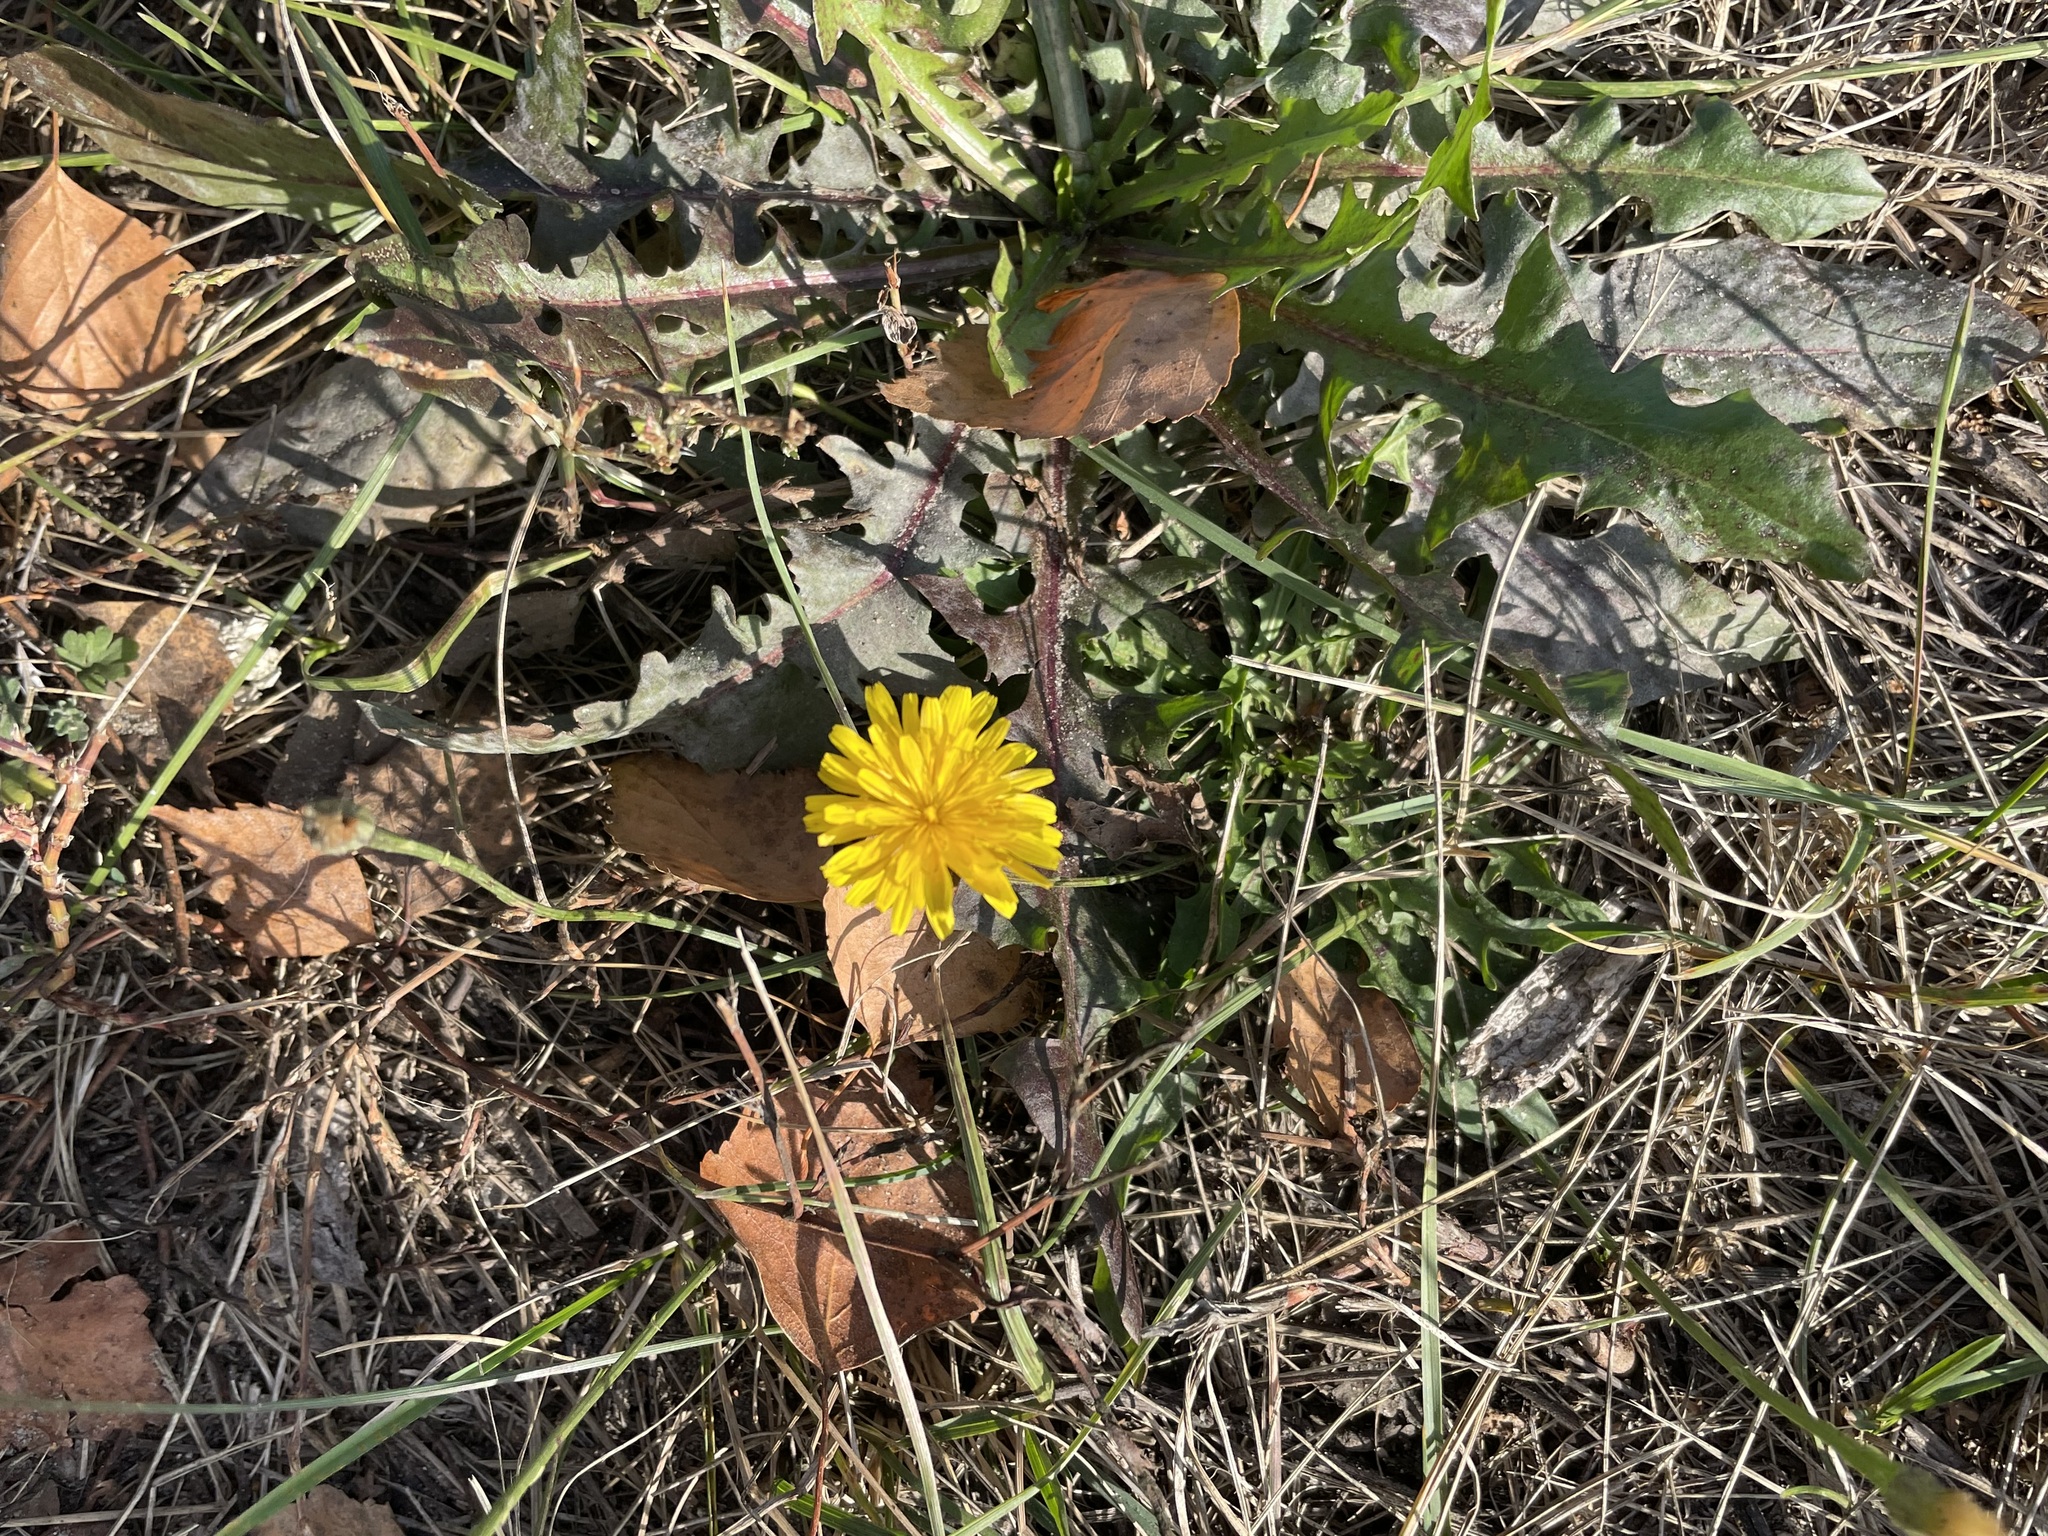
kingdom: Plantae
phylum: Tracheophyta
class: Magnoliopsida
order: Asterales
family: Asteraceae
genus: Scorzoneroides
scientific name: Scorzoneroides autumnalis
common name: Autumn hawkbit
